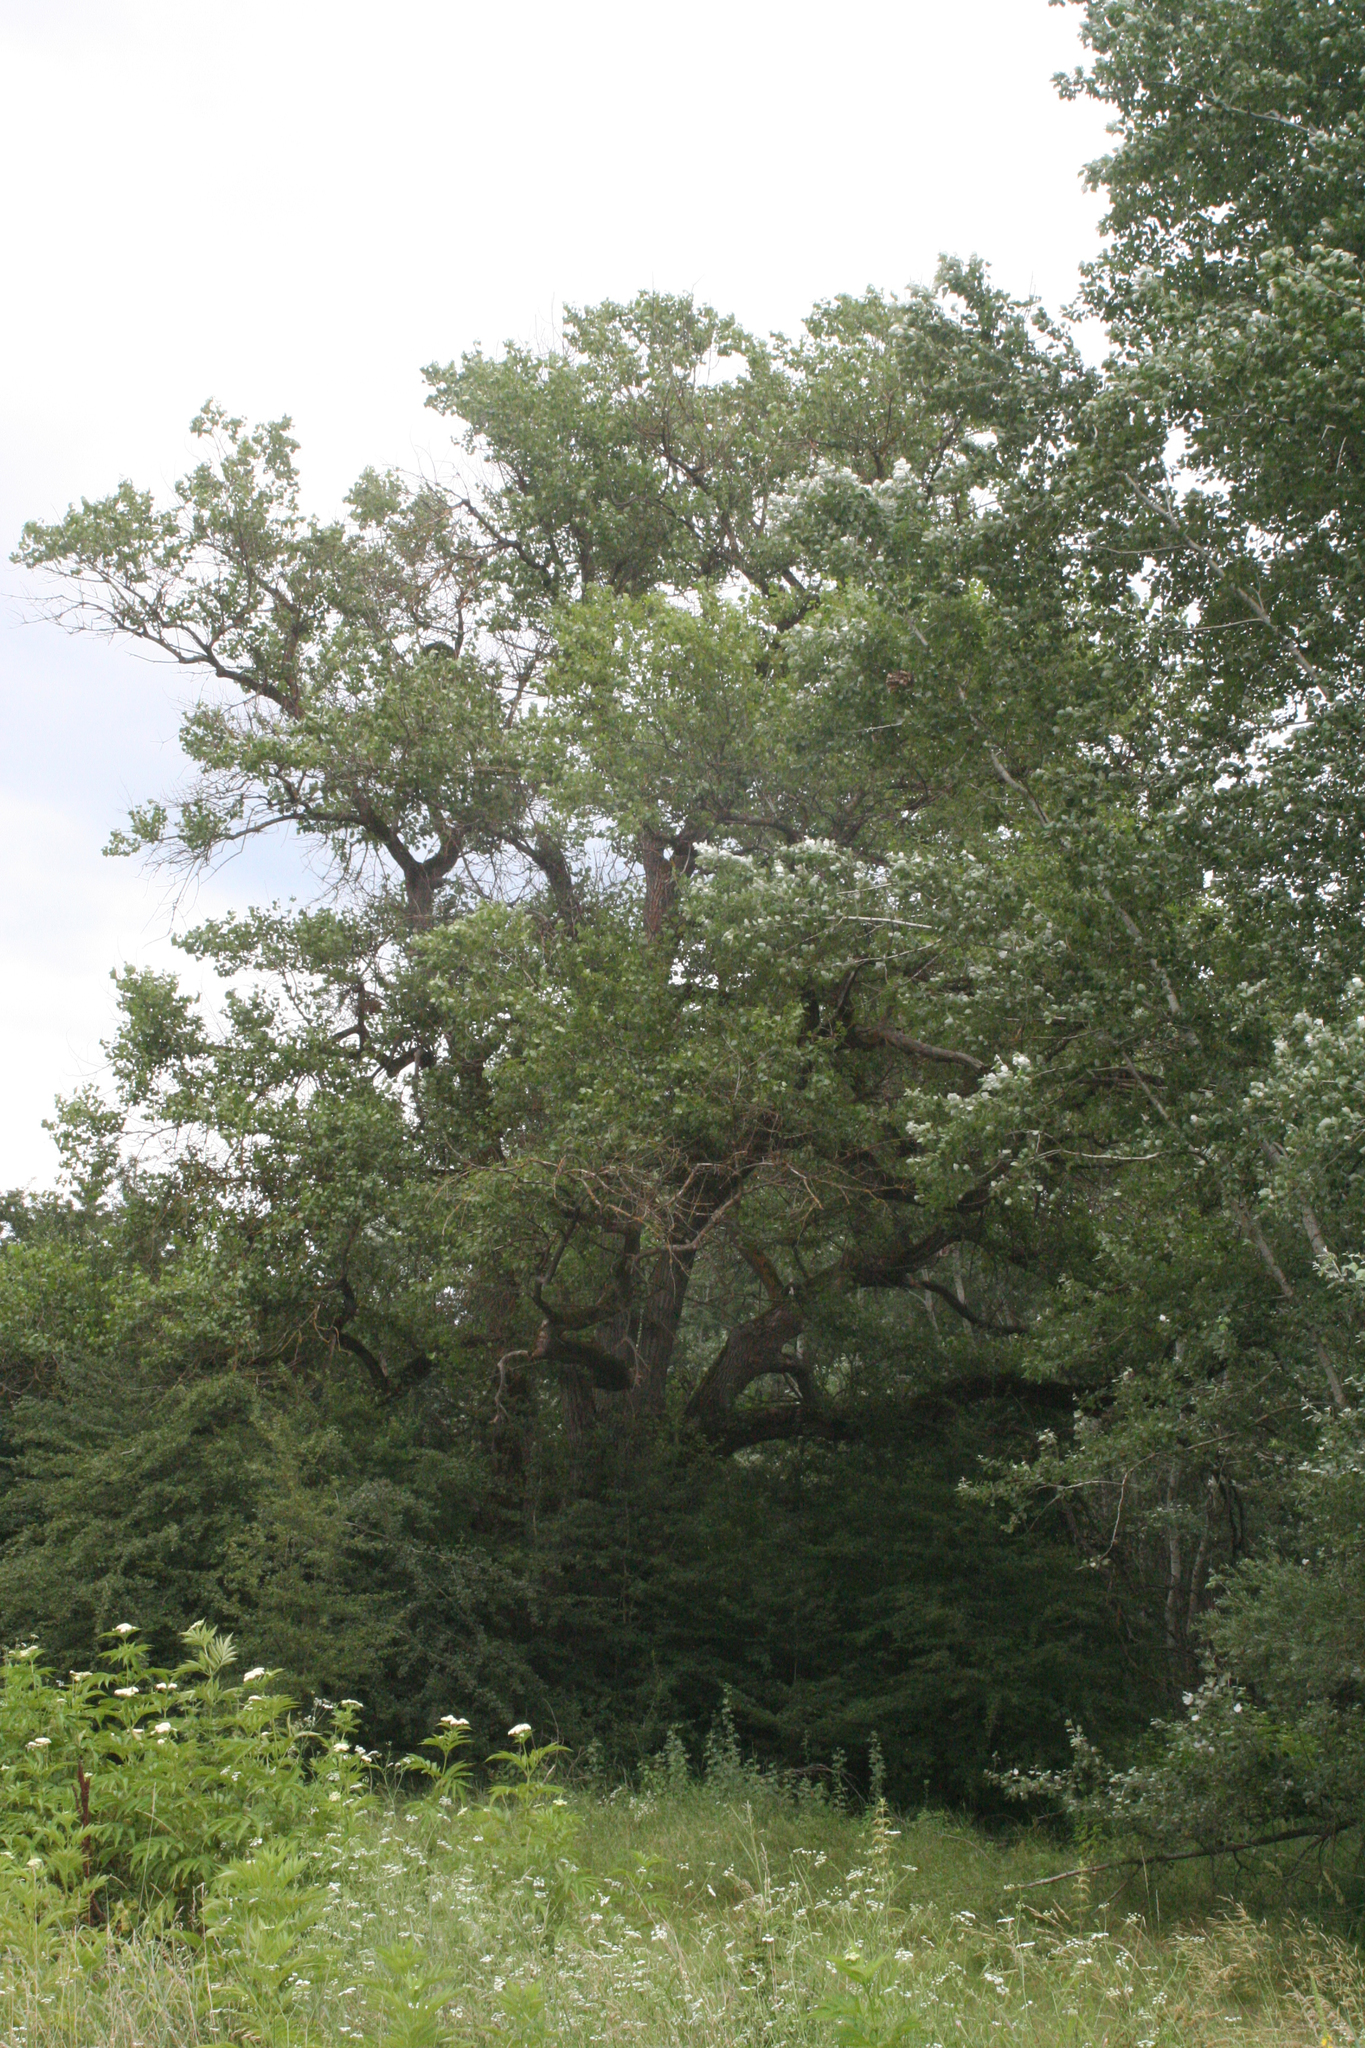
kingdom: Plantae
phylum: Tracheophyta
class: Magnoliopsida
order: Malpighiales
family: Salicaceae
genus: Populus
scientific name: Populus alba
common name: White poplar
